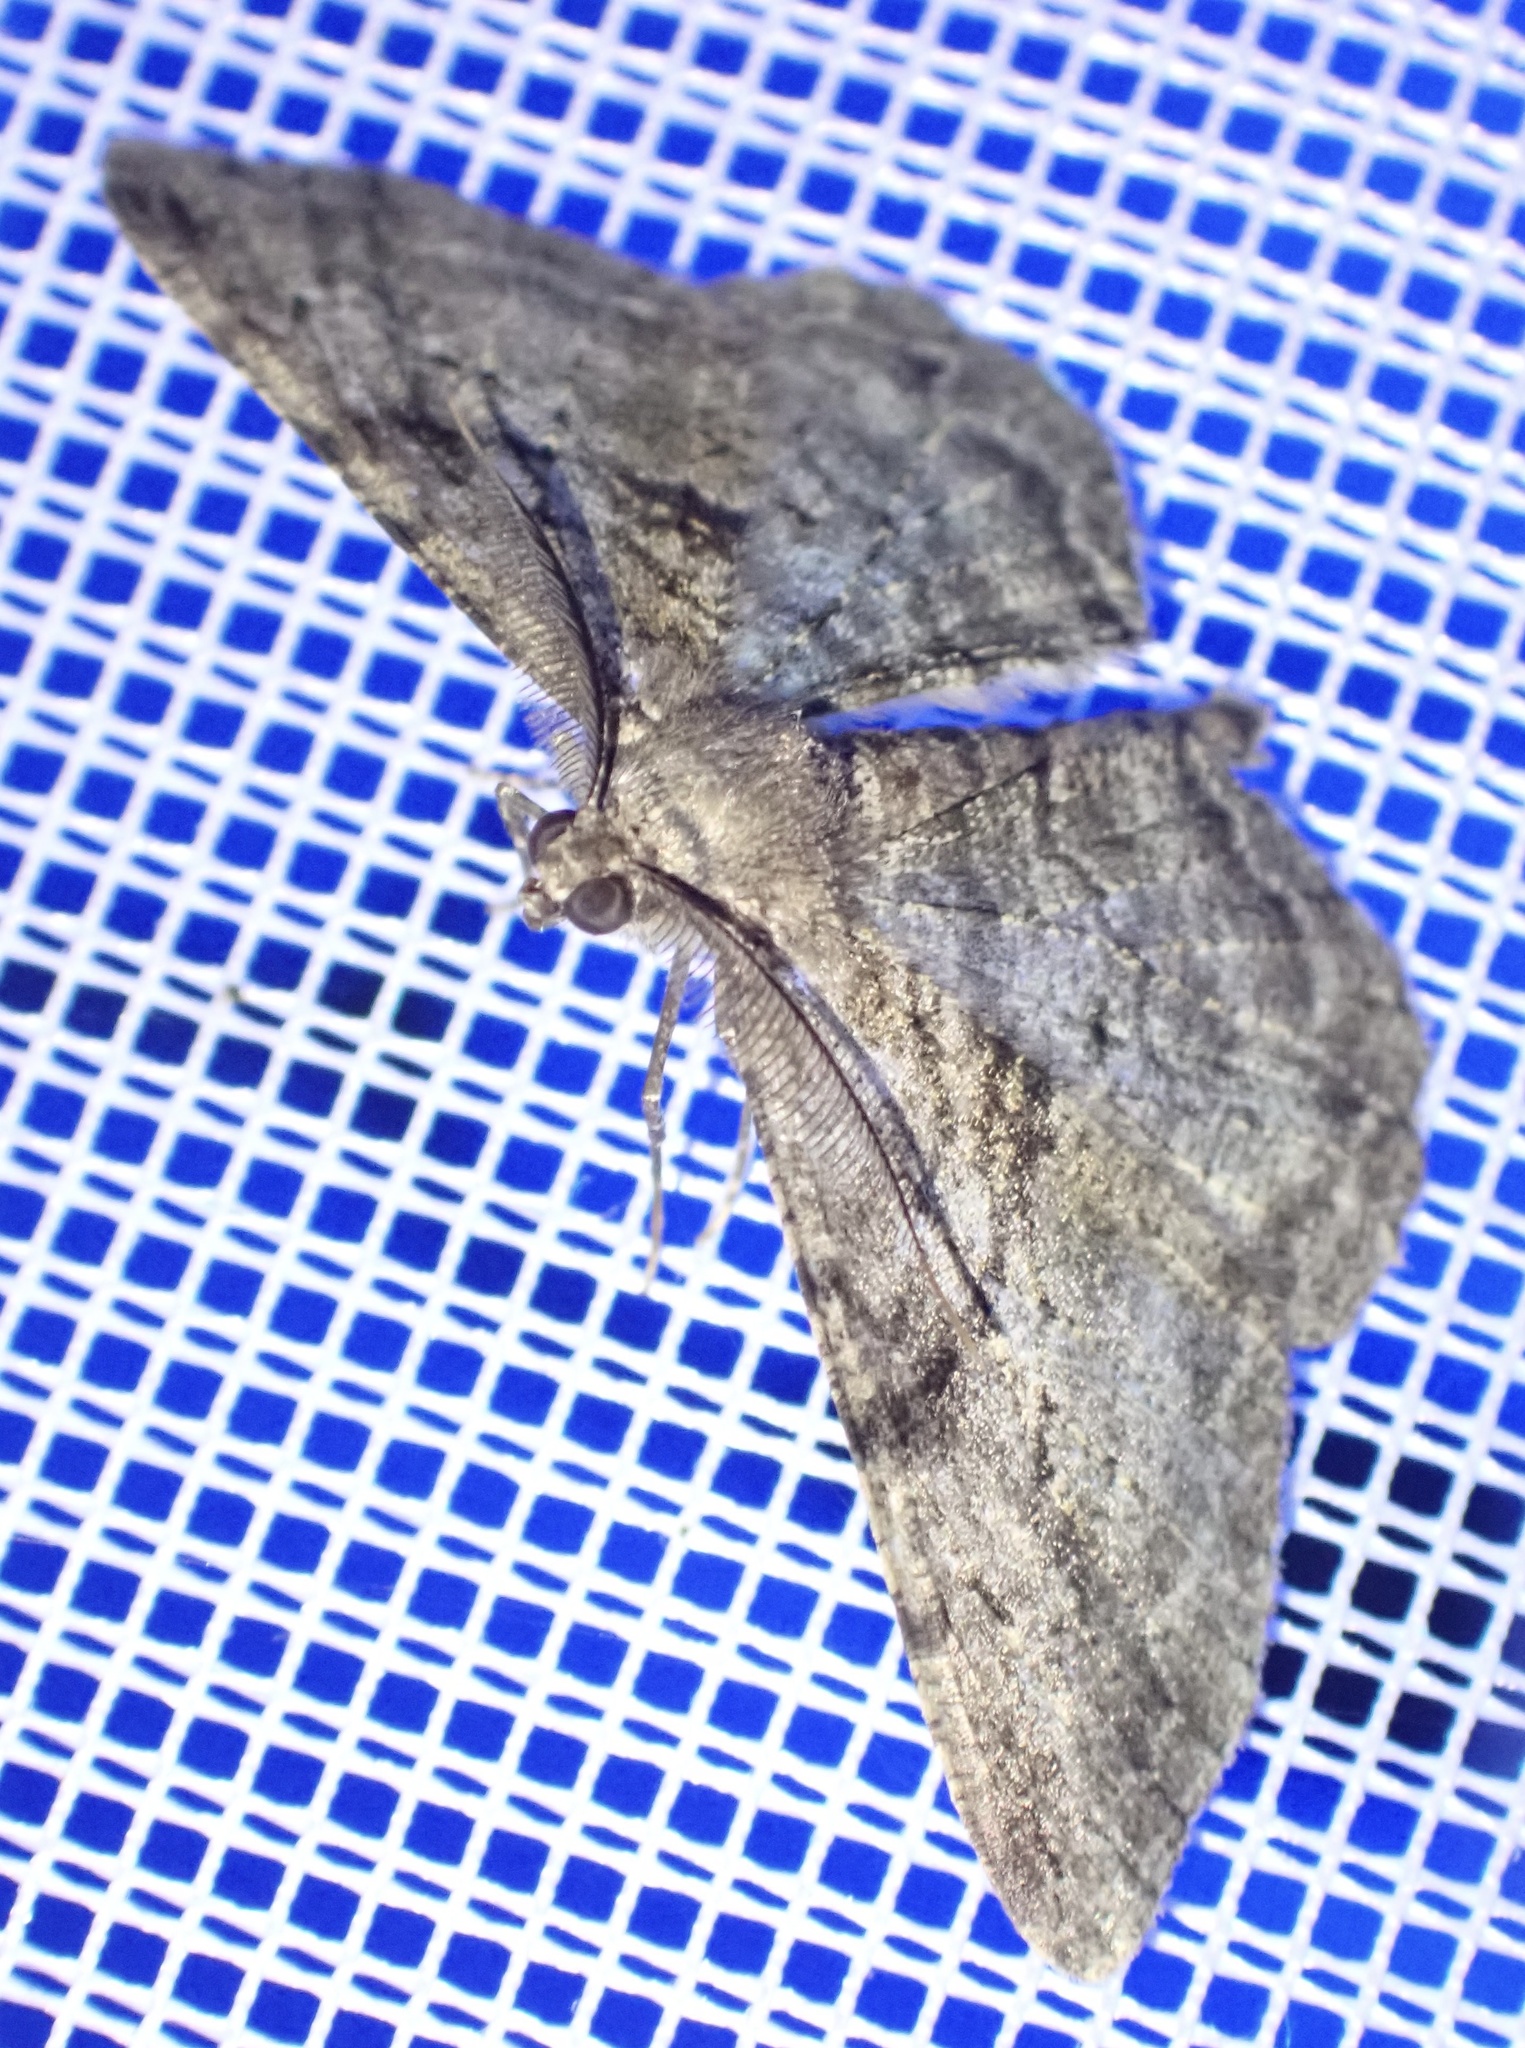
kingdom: Animalia
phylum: Arthropoda
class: Insecta
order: Lepidoptera
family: Geometridae
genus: Peribatodes
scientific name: Peribatodes rhomboidaria
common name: Willow beauty
